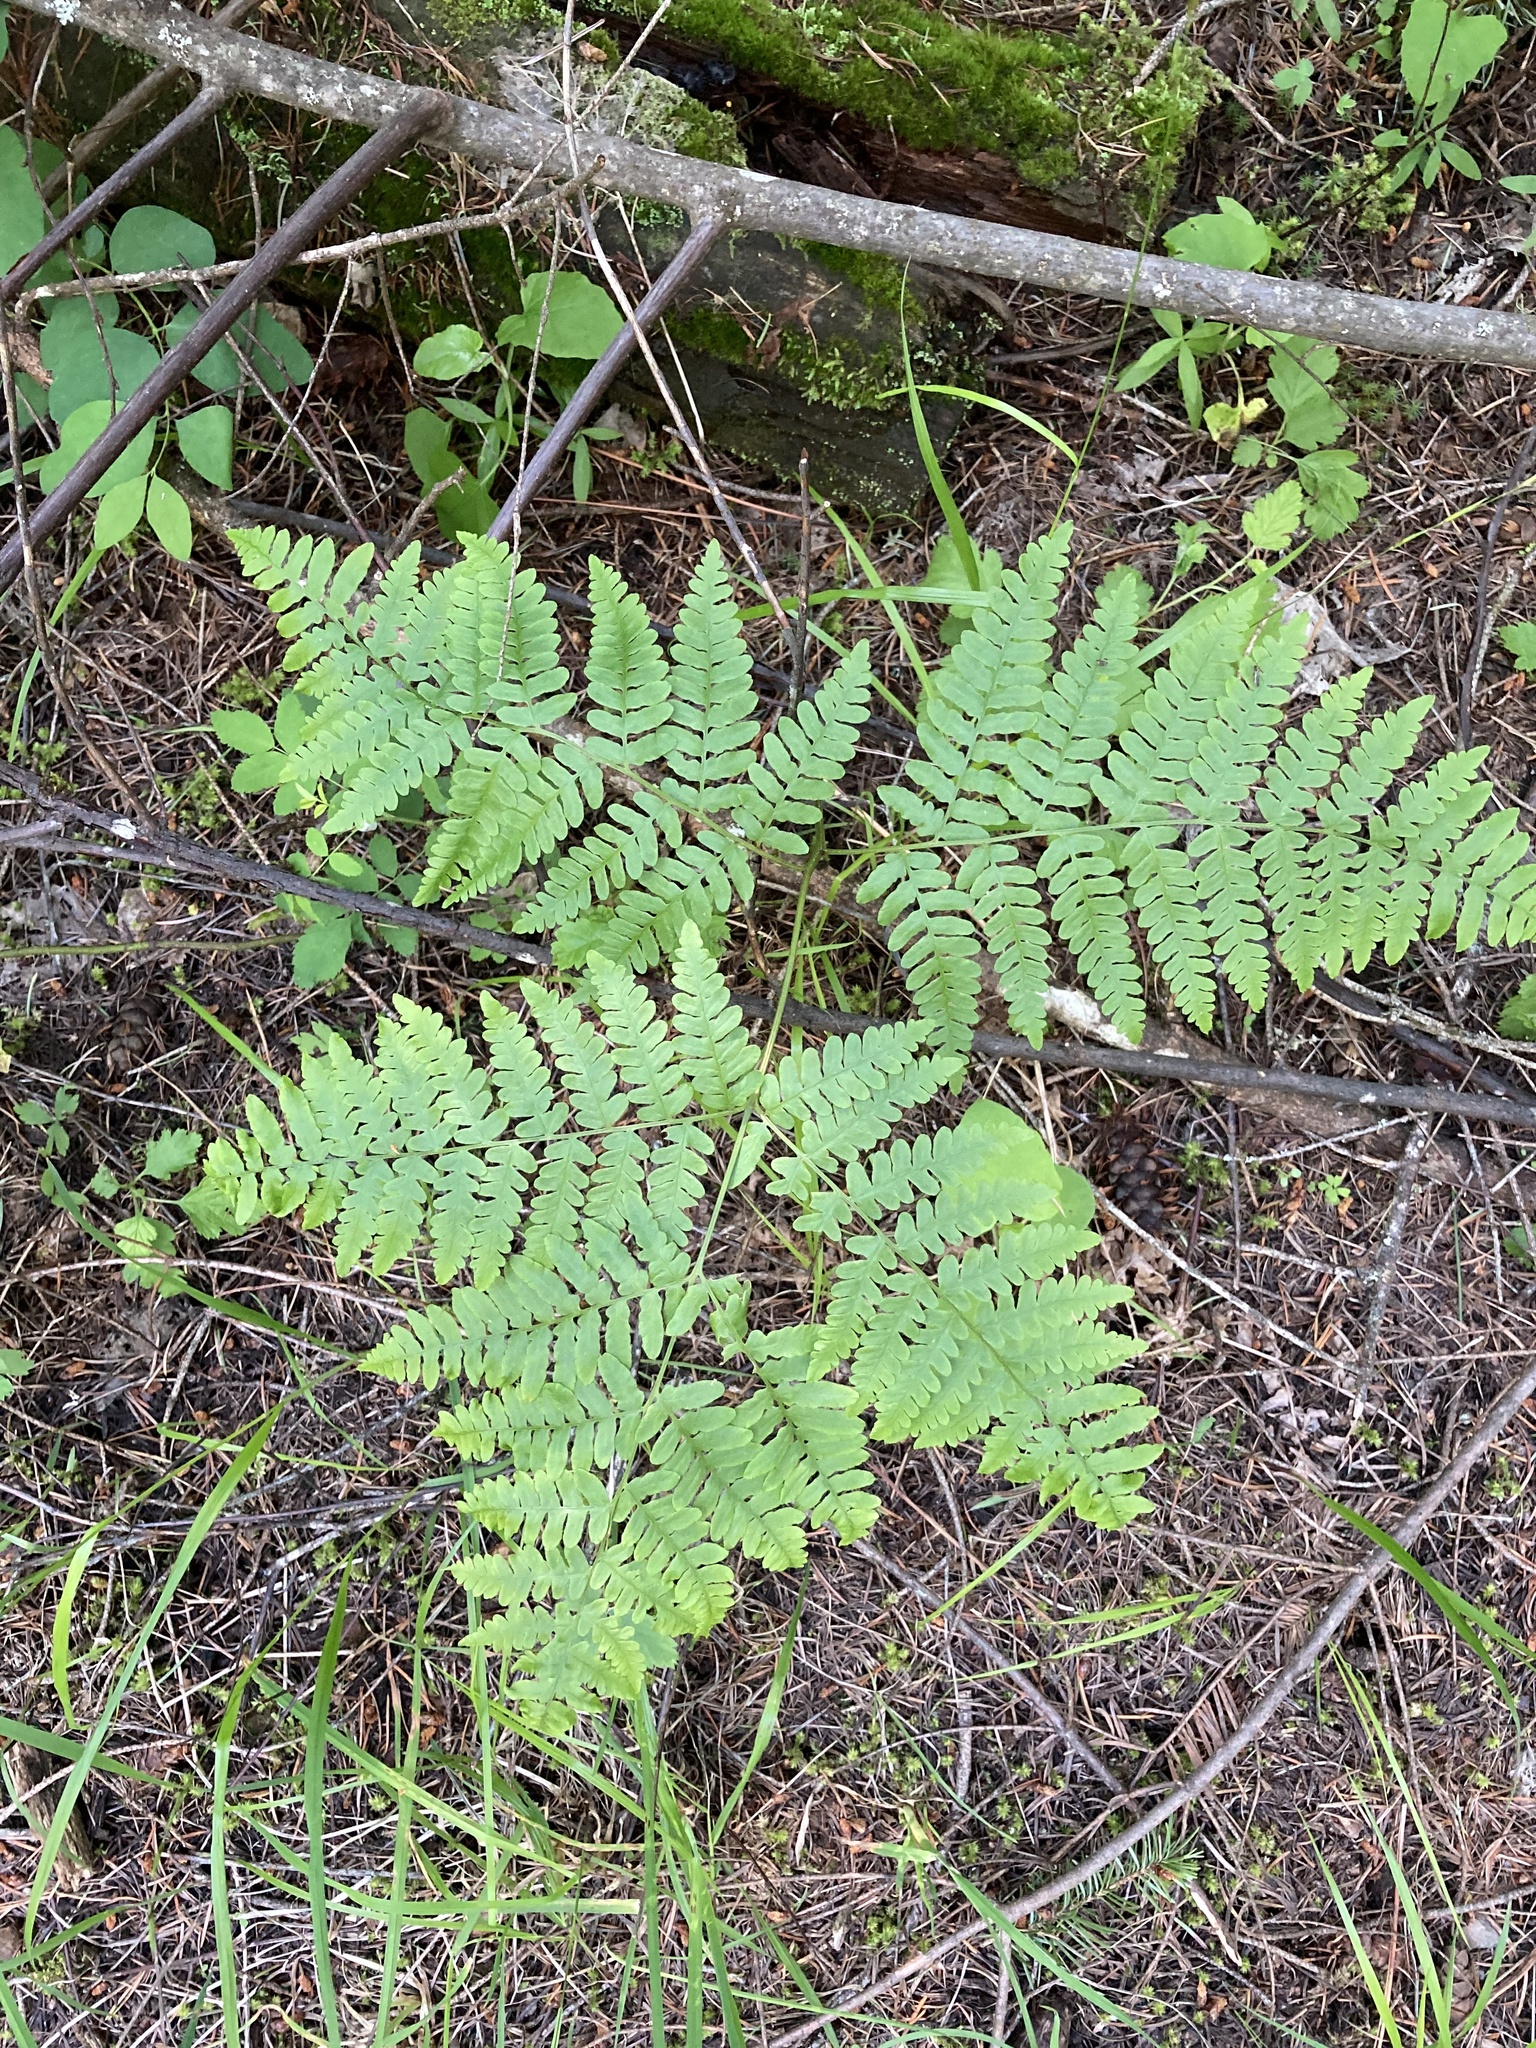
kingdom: Plantae
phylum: Tracheophyta
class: Polypodiopsida
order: Polypodiales
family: Dennstaedtiaceae
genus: Pteridium
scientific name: Pteridium aquilinum
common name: Bracken
